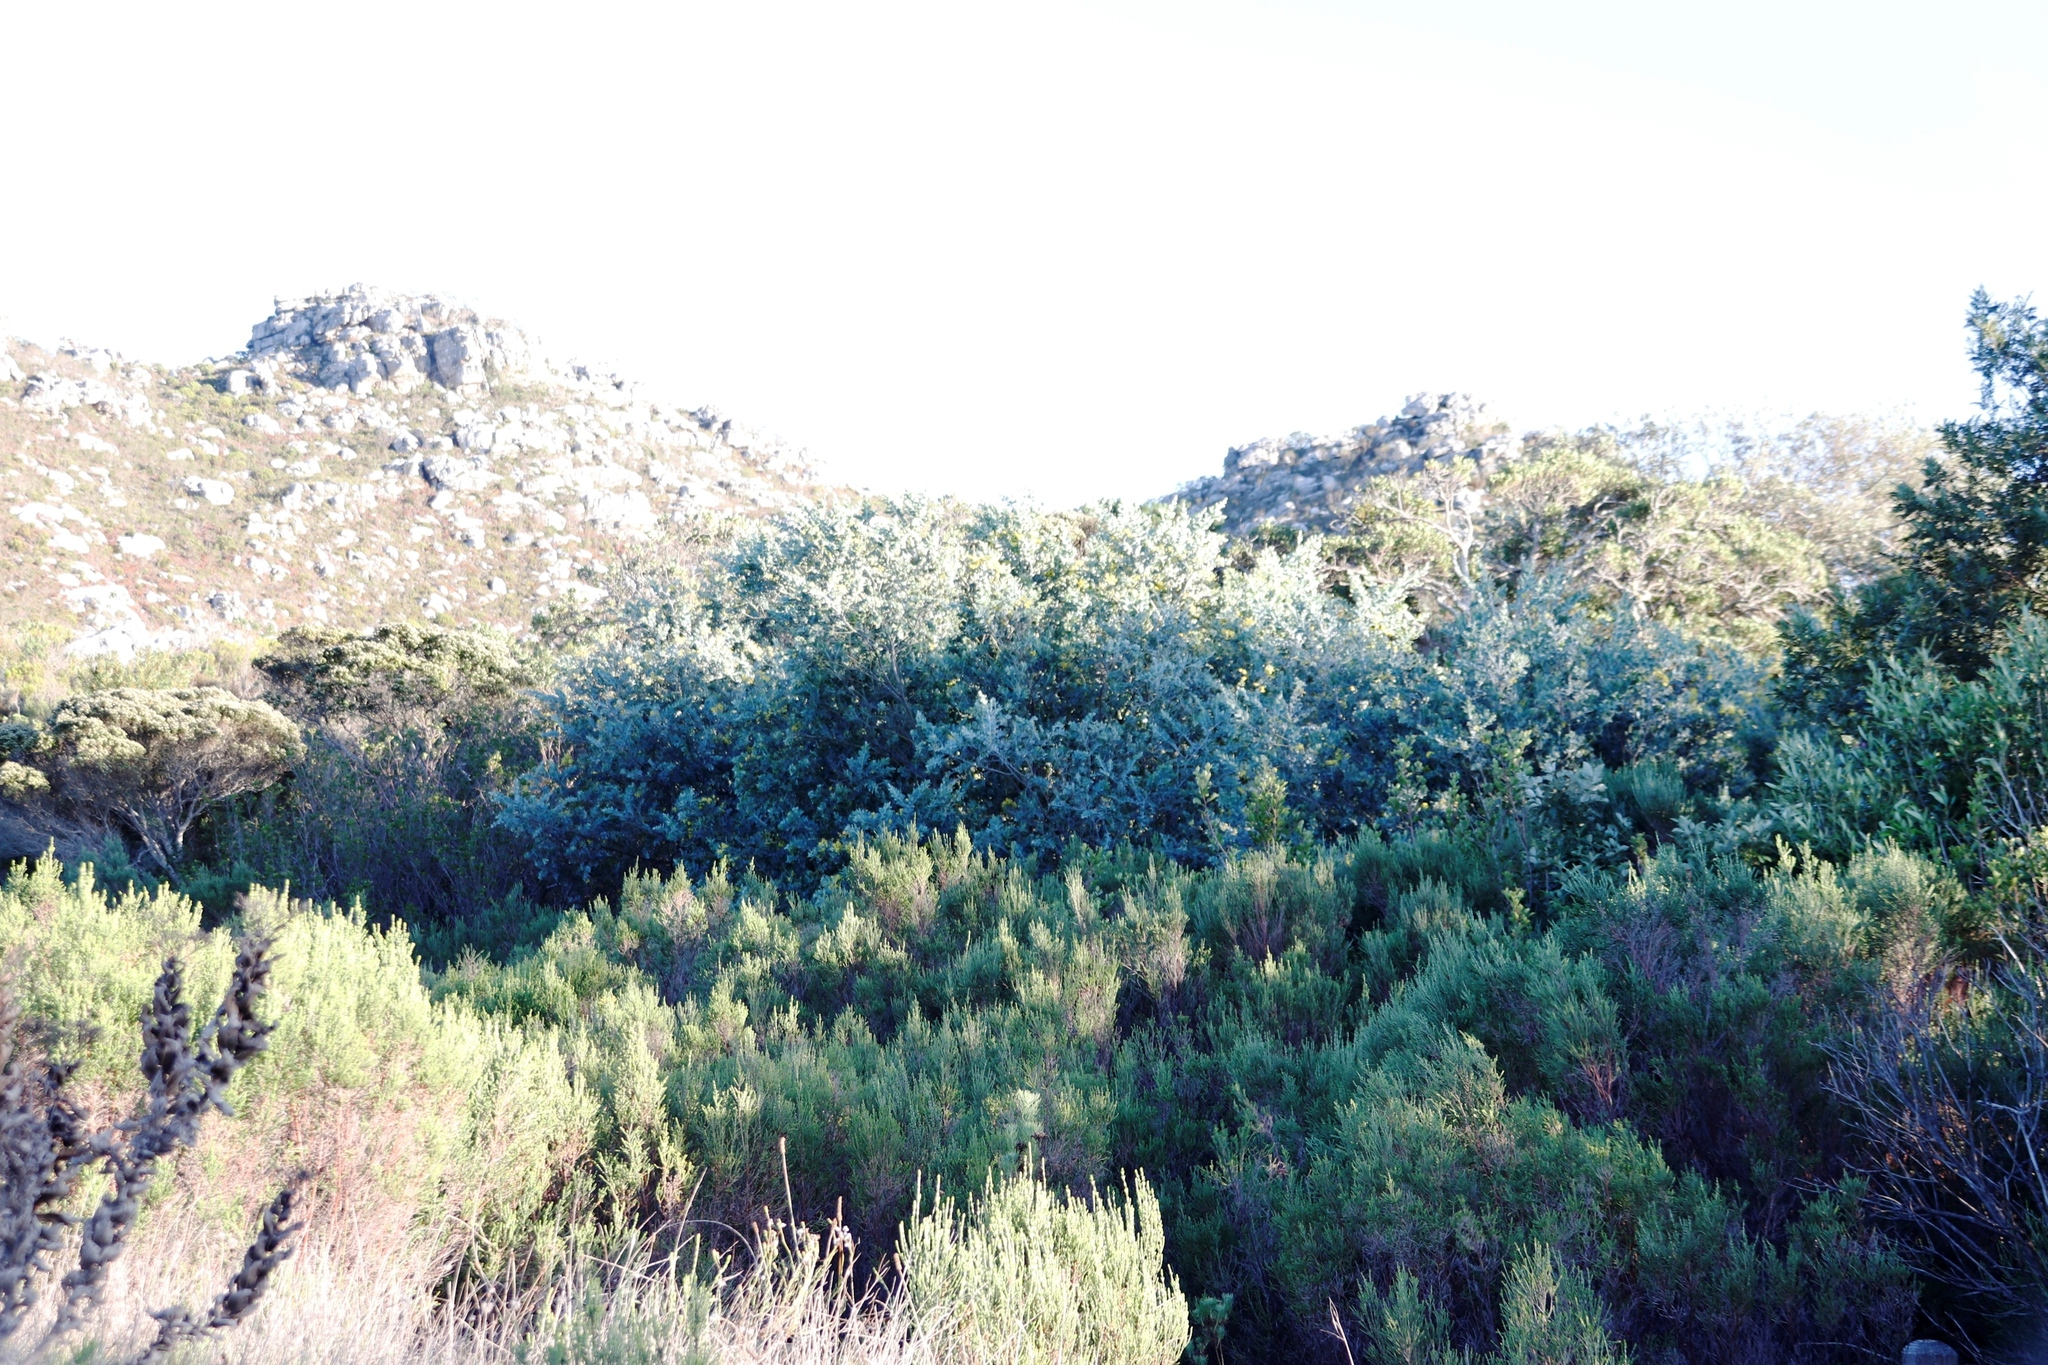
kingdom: Plantae
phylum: Tracheophyta
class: Magnoliopsida
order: Fabales
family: Fabaceae
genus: Acacia
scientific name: Acacia podalyriifolia
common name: Pearl wattle
